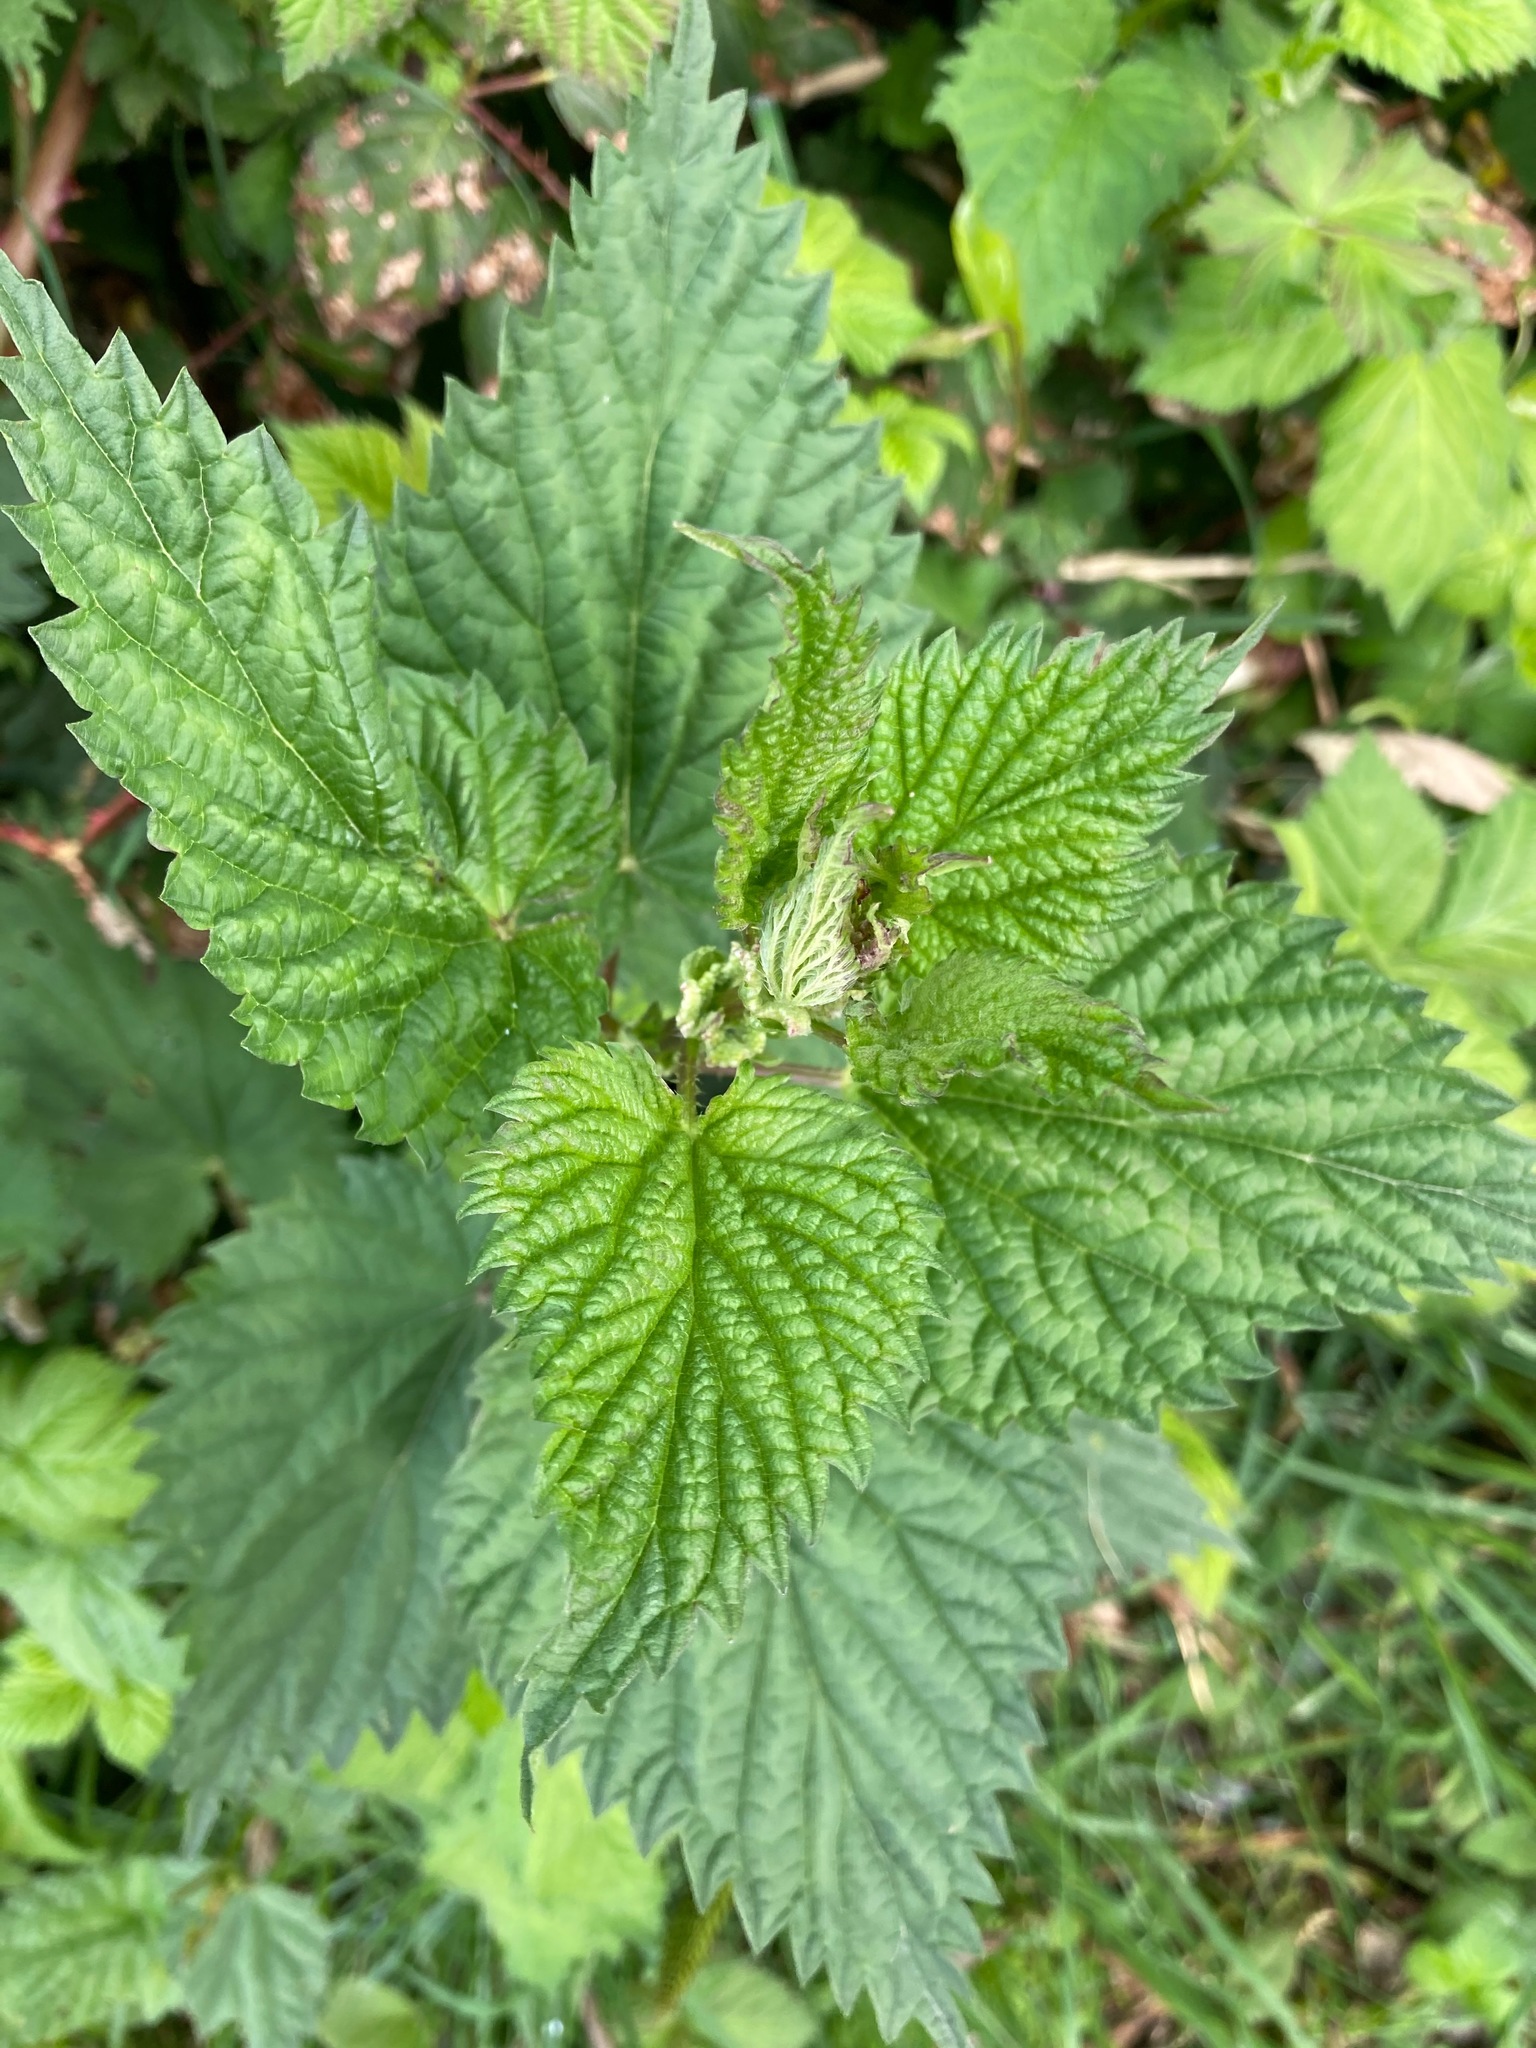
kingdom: Plantae
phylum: Tracheophyta
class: Magnoliopsida
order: Rosales
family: Urticaceae
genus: Urtica
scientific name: Urtica dioica
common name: Common nettle
